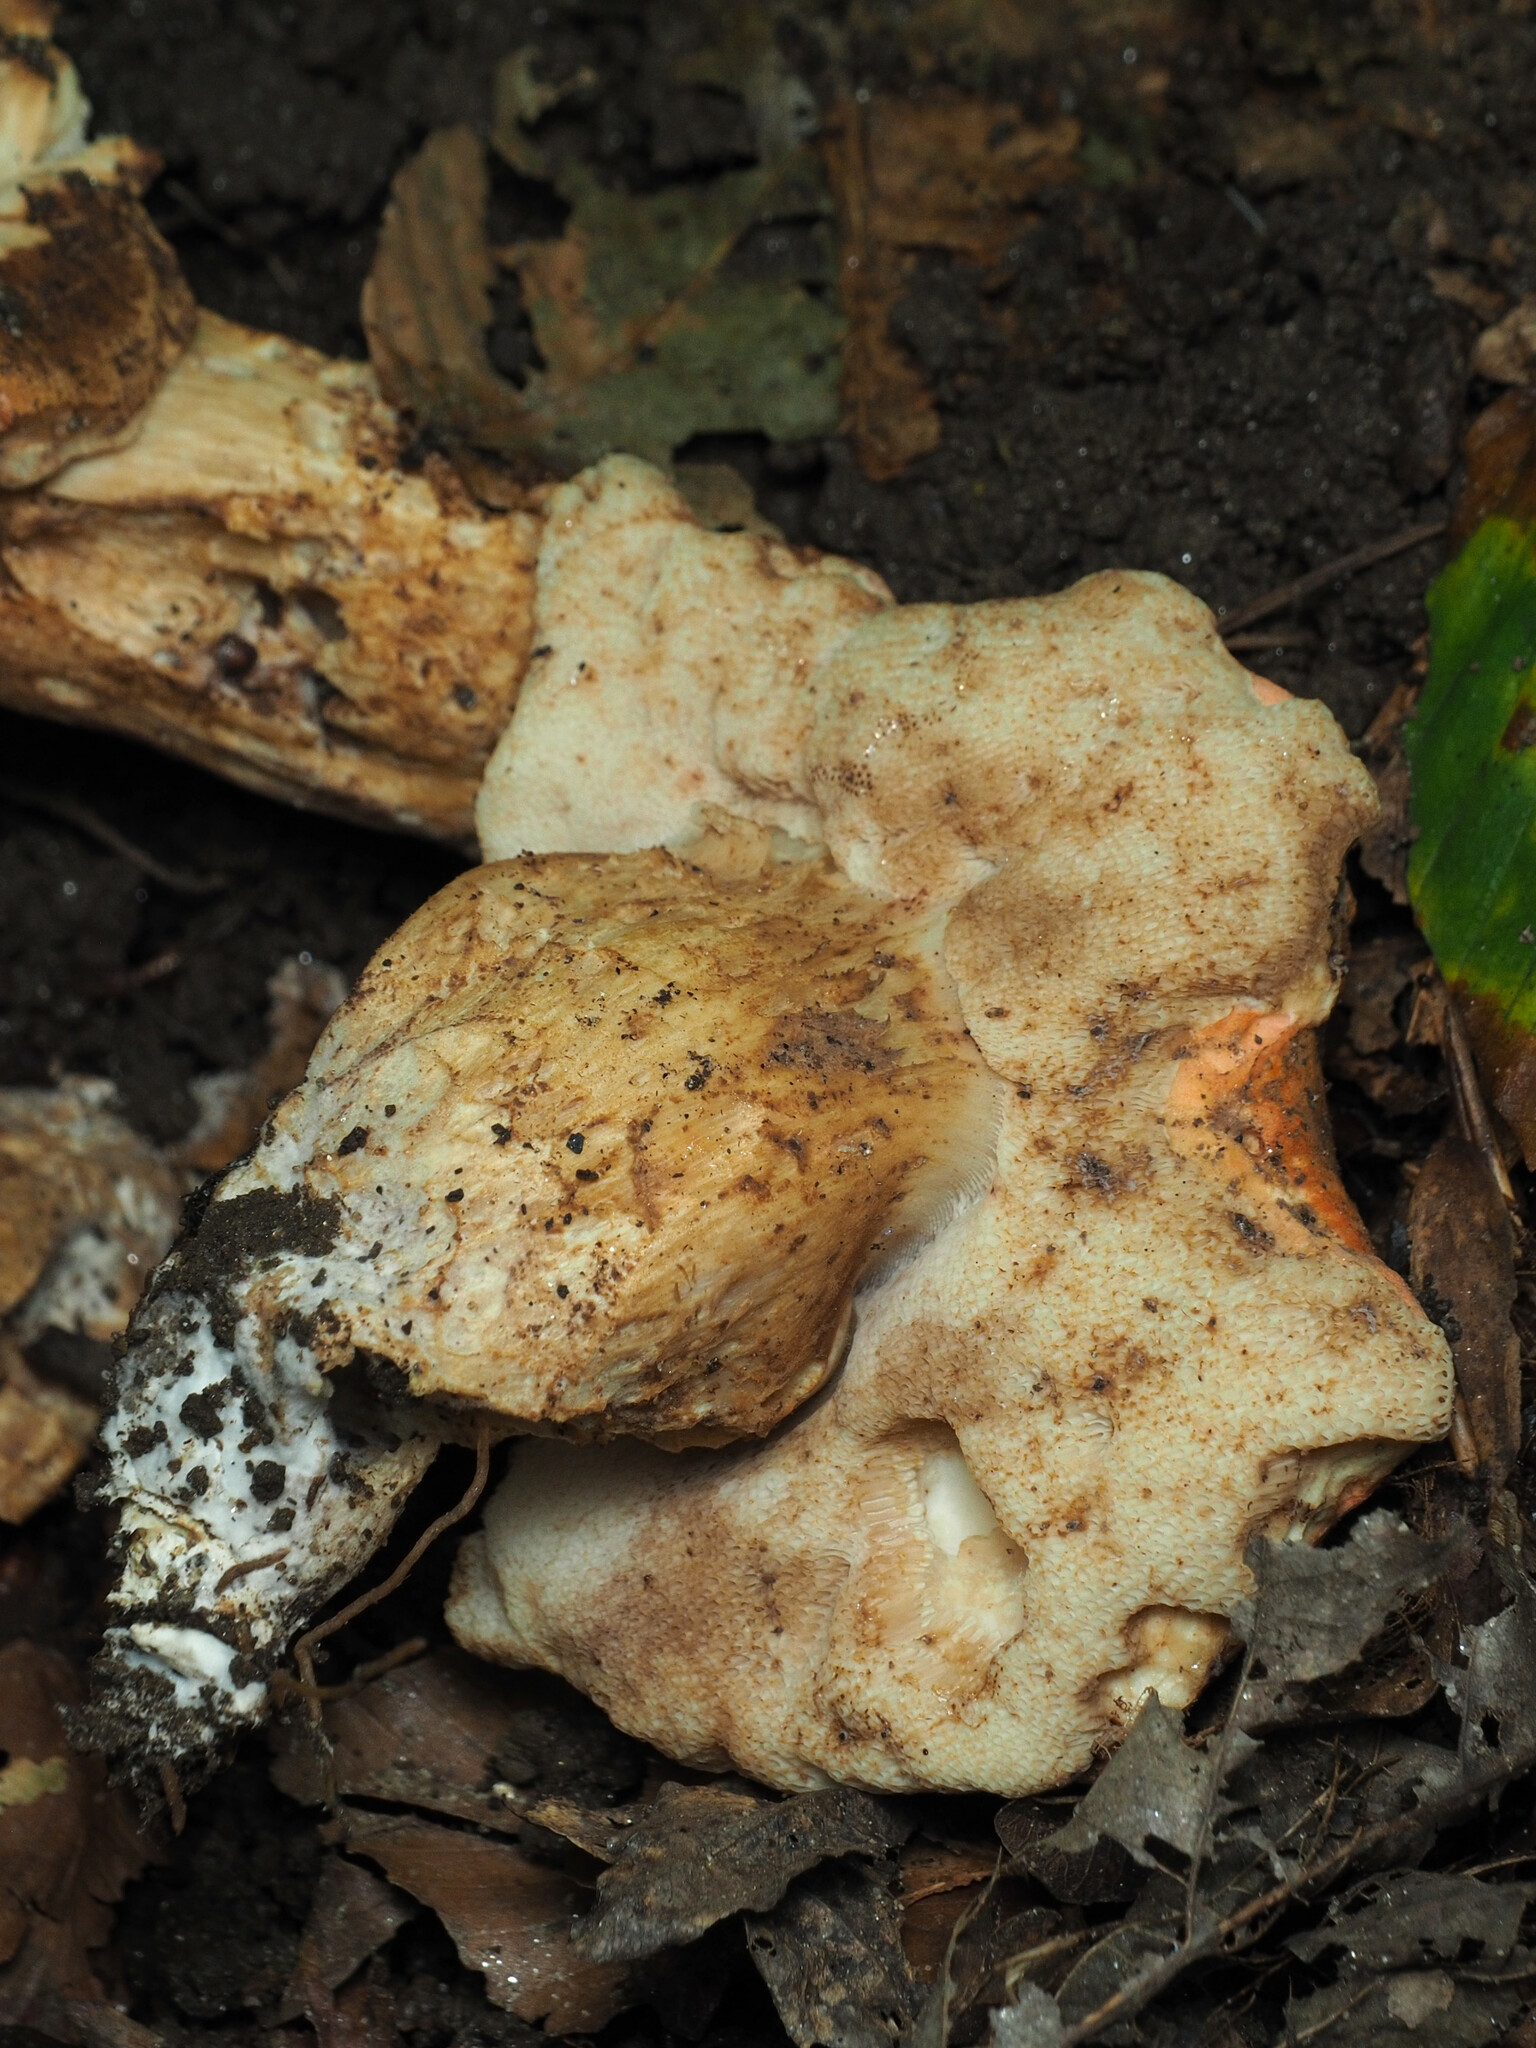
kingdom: Fungi
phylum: Basidiomycota
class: Agaricomycetes
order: Boletales
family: Boletaceae
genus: Tylopilus
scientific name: Tylopilus balloui
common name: Burnt-orange bolete
